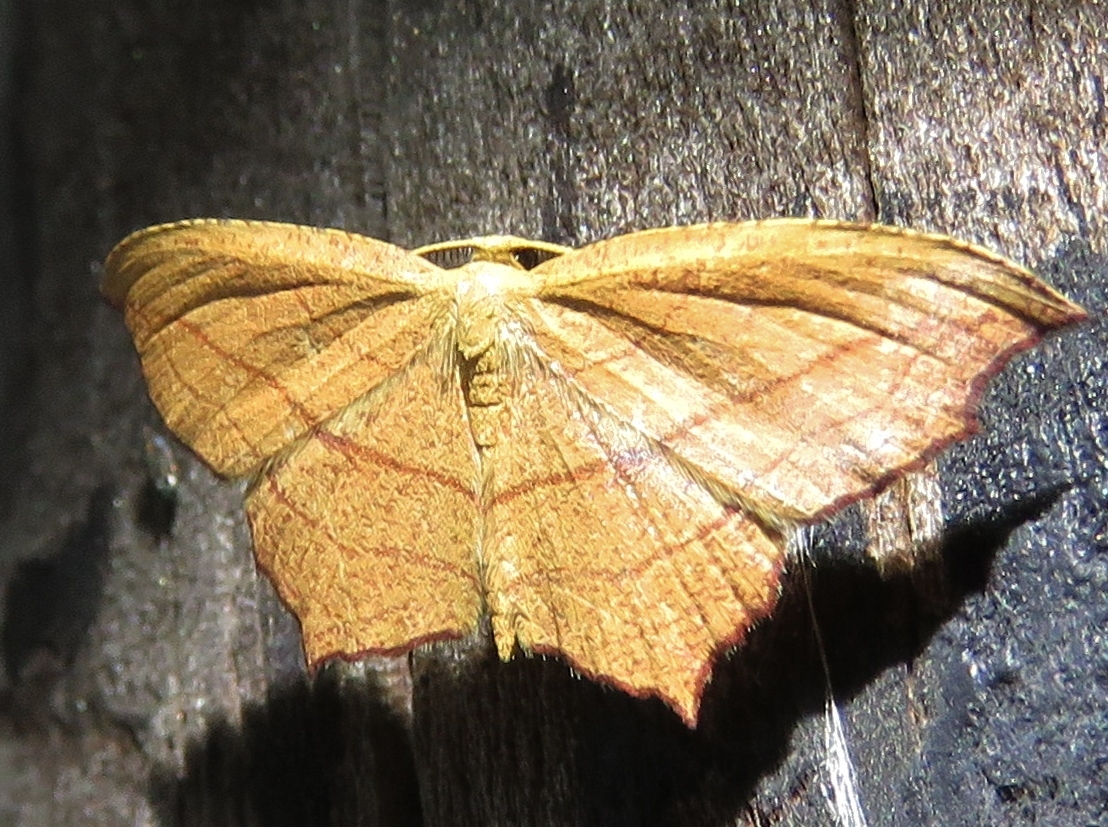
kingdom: Animalia
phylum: Arthropoda
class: Insecta
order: Lepidoptera
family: Geometridae
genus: Timandra
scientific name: Timandra amaturaria
